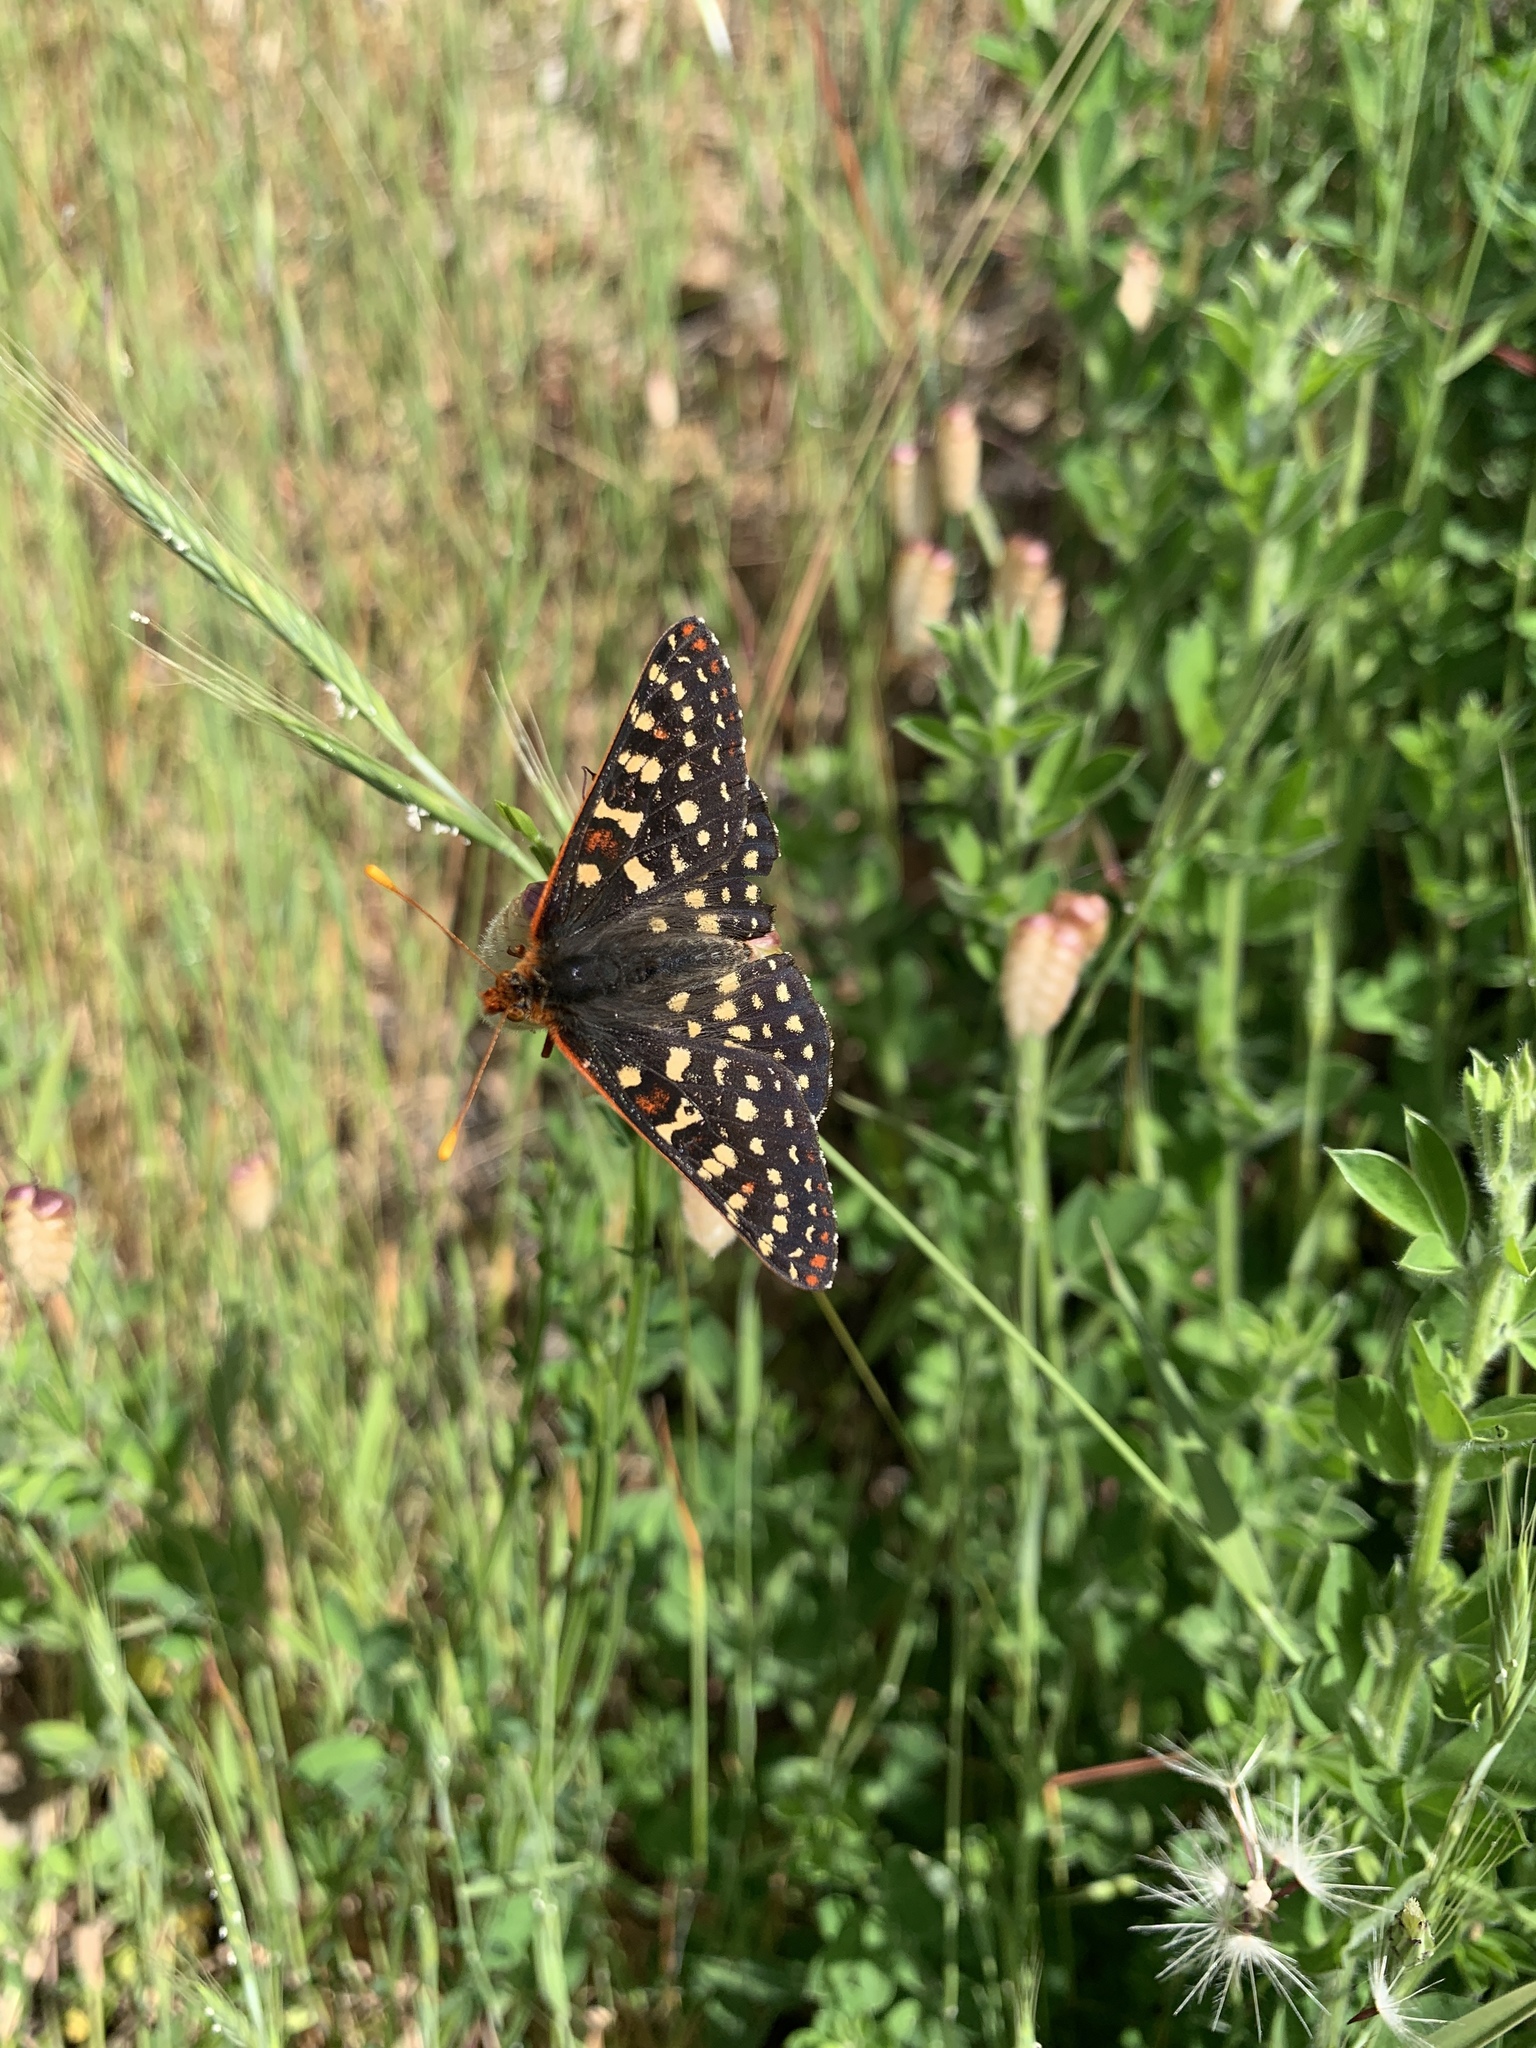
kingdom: Animalia
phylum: Arthropoda
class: Insecta
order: Lepidoptera
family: Nymphalidae
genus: Occidryas
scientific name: Occidryas chalcedona
